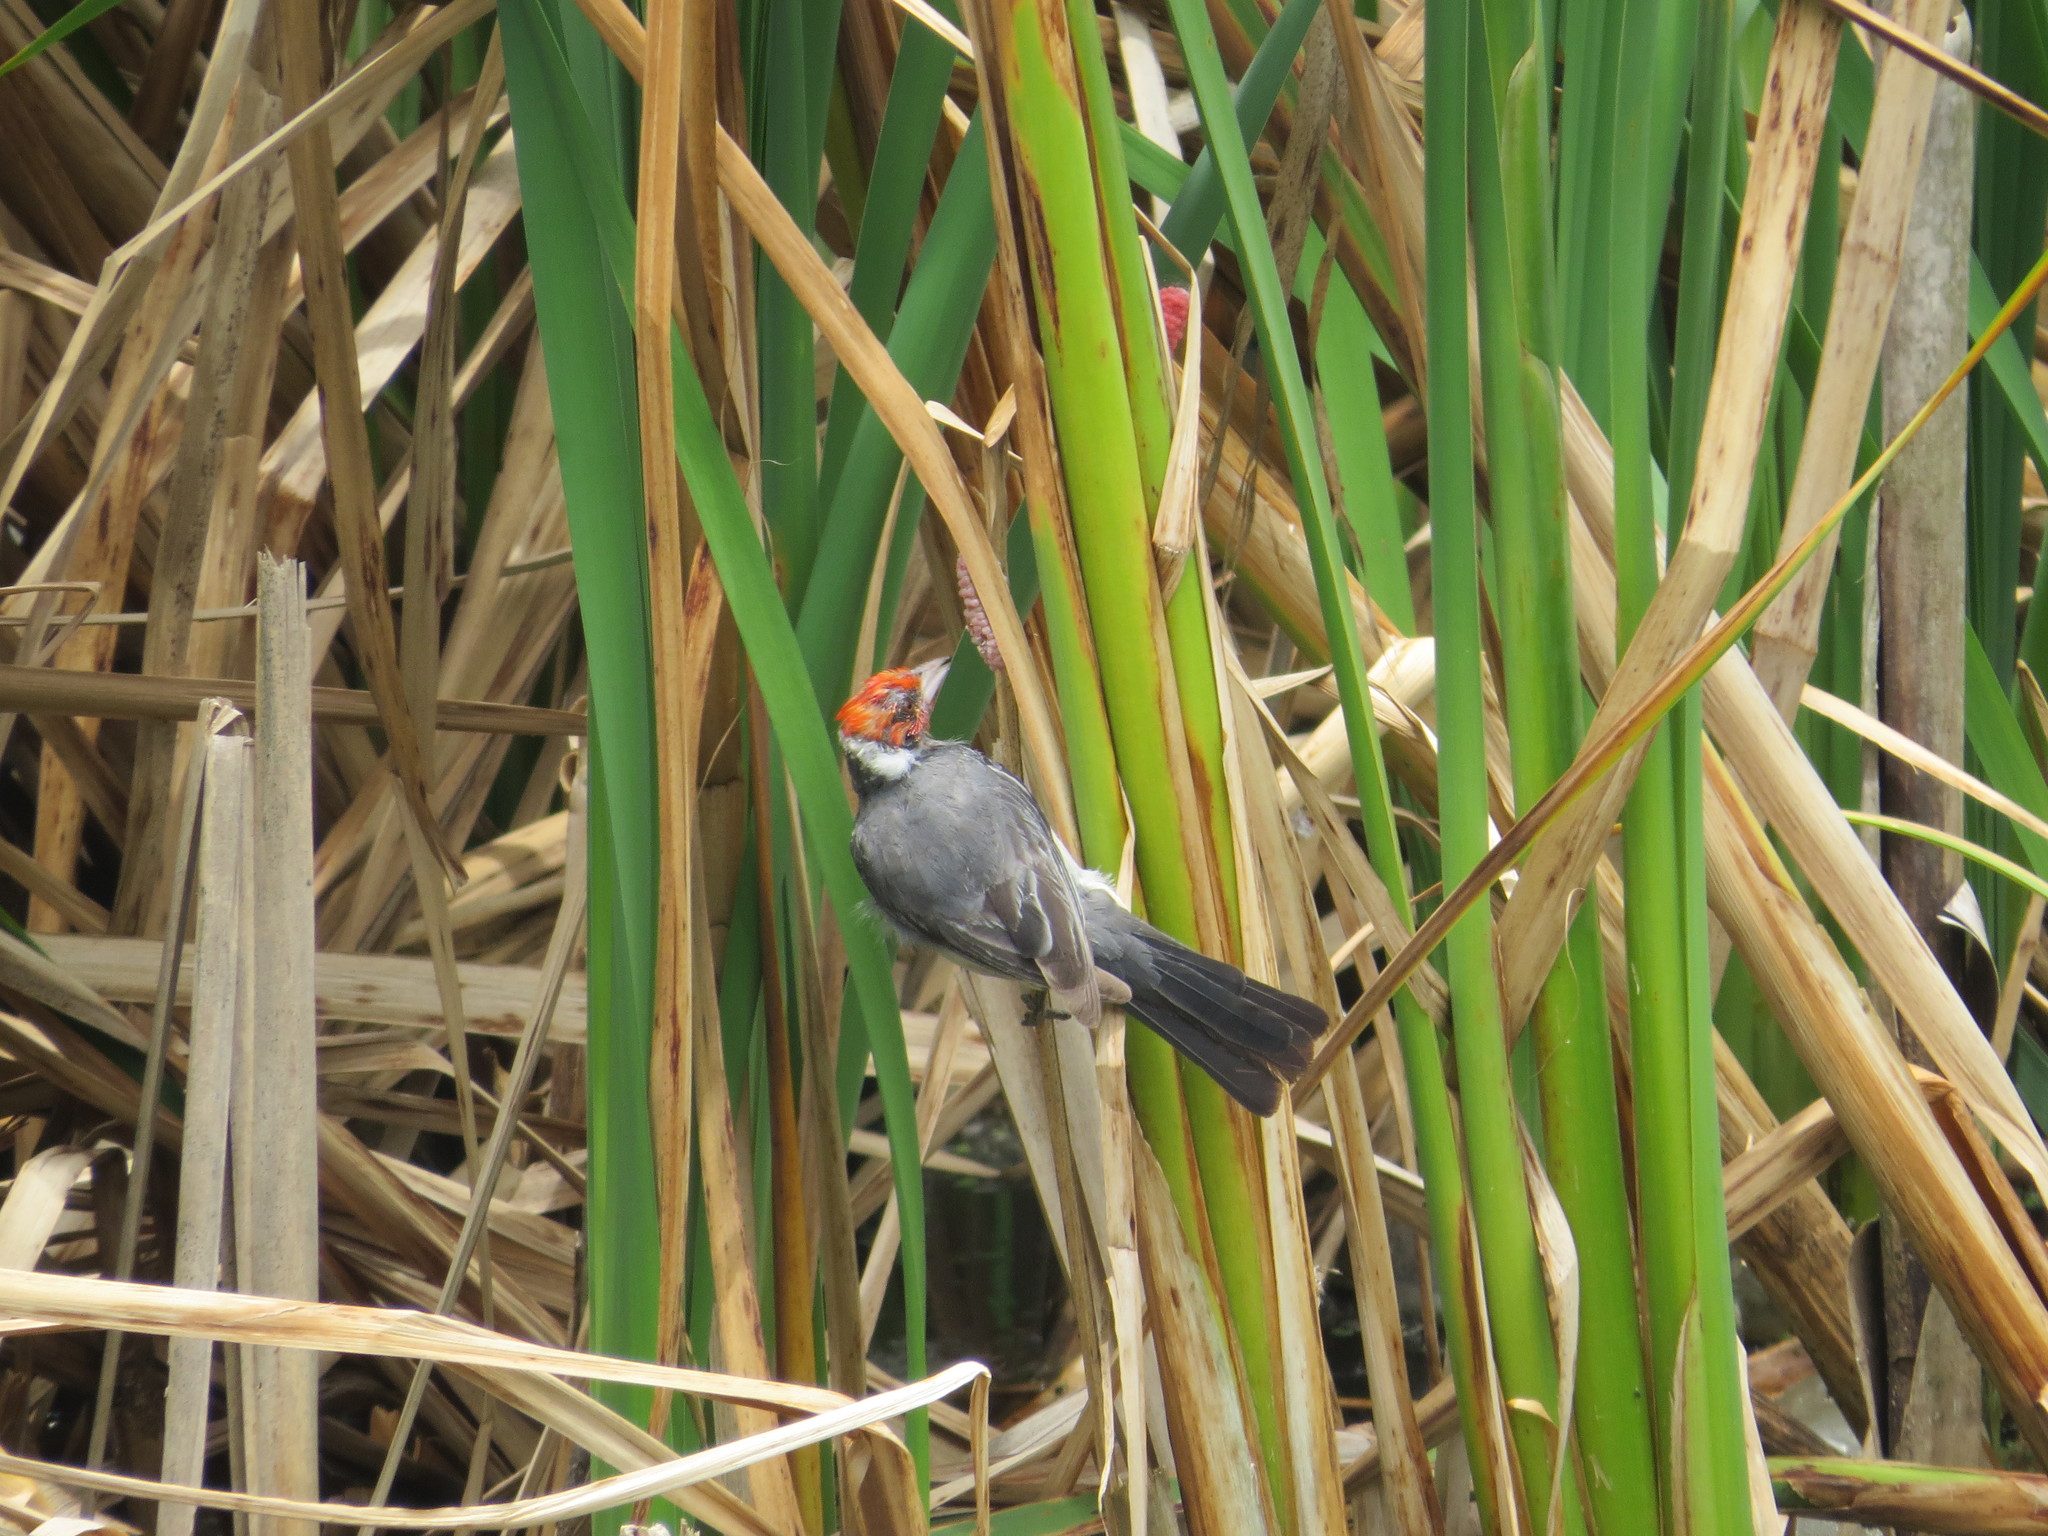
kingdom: Animalia
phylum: Chordata
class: Aves
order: Passeriformes
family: Thraupidae
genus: Paroaria
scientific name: Paroaria capitata
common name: Yellow-billed cardinal
